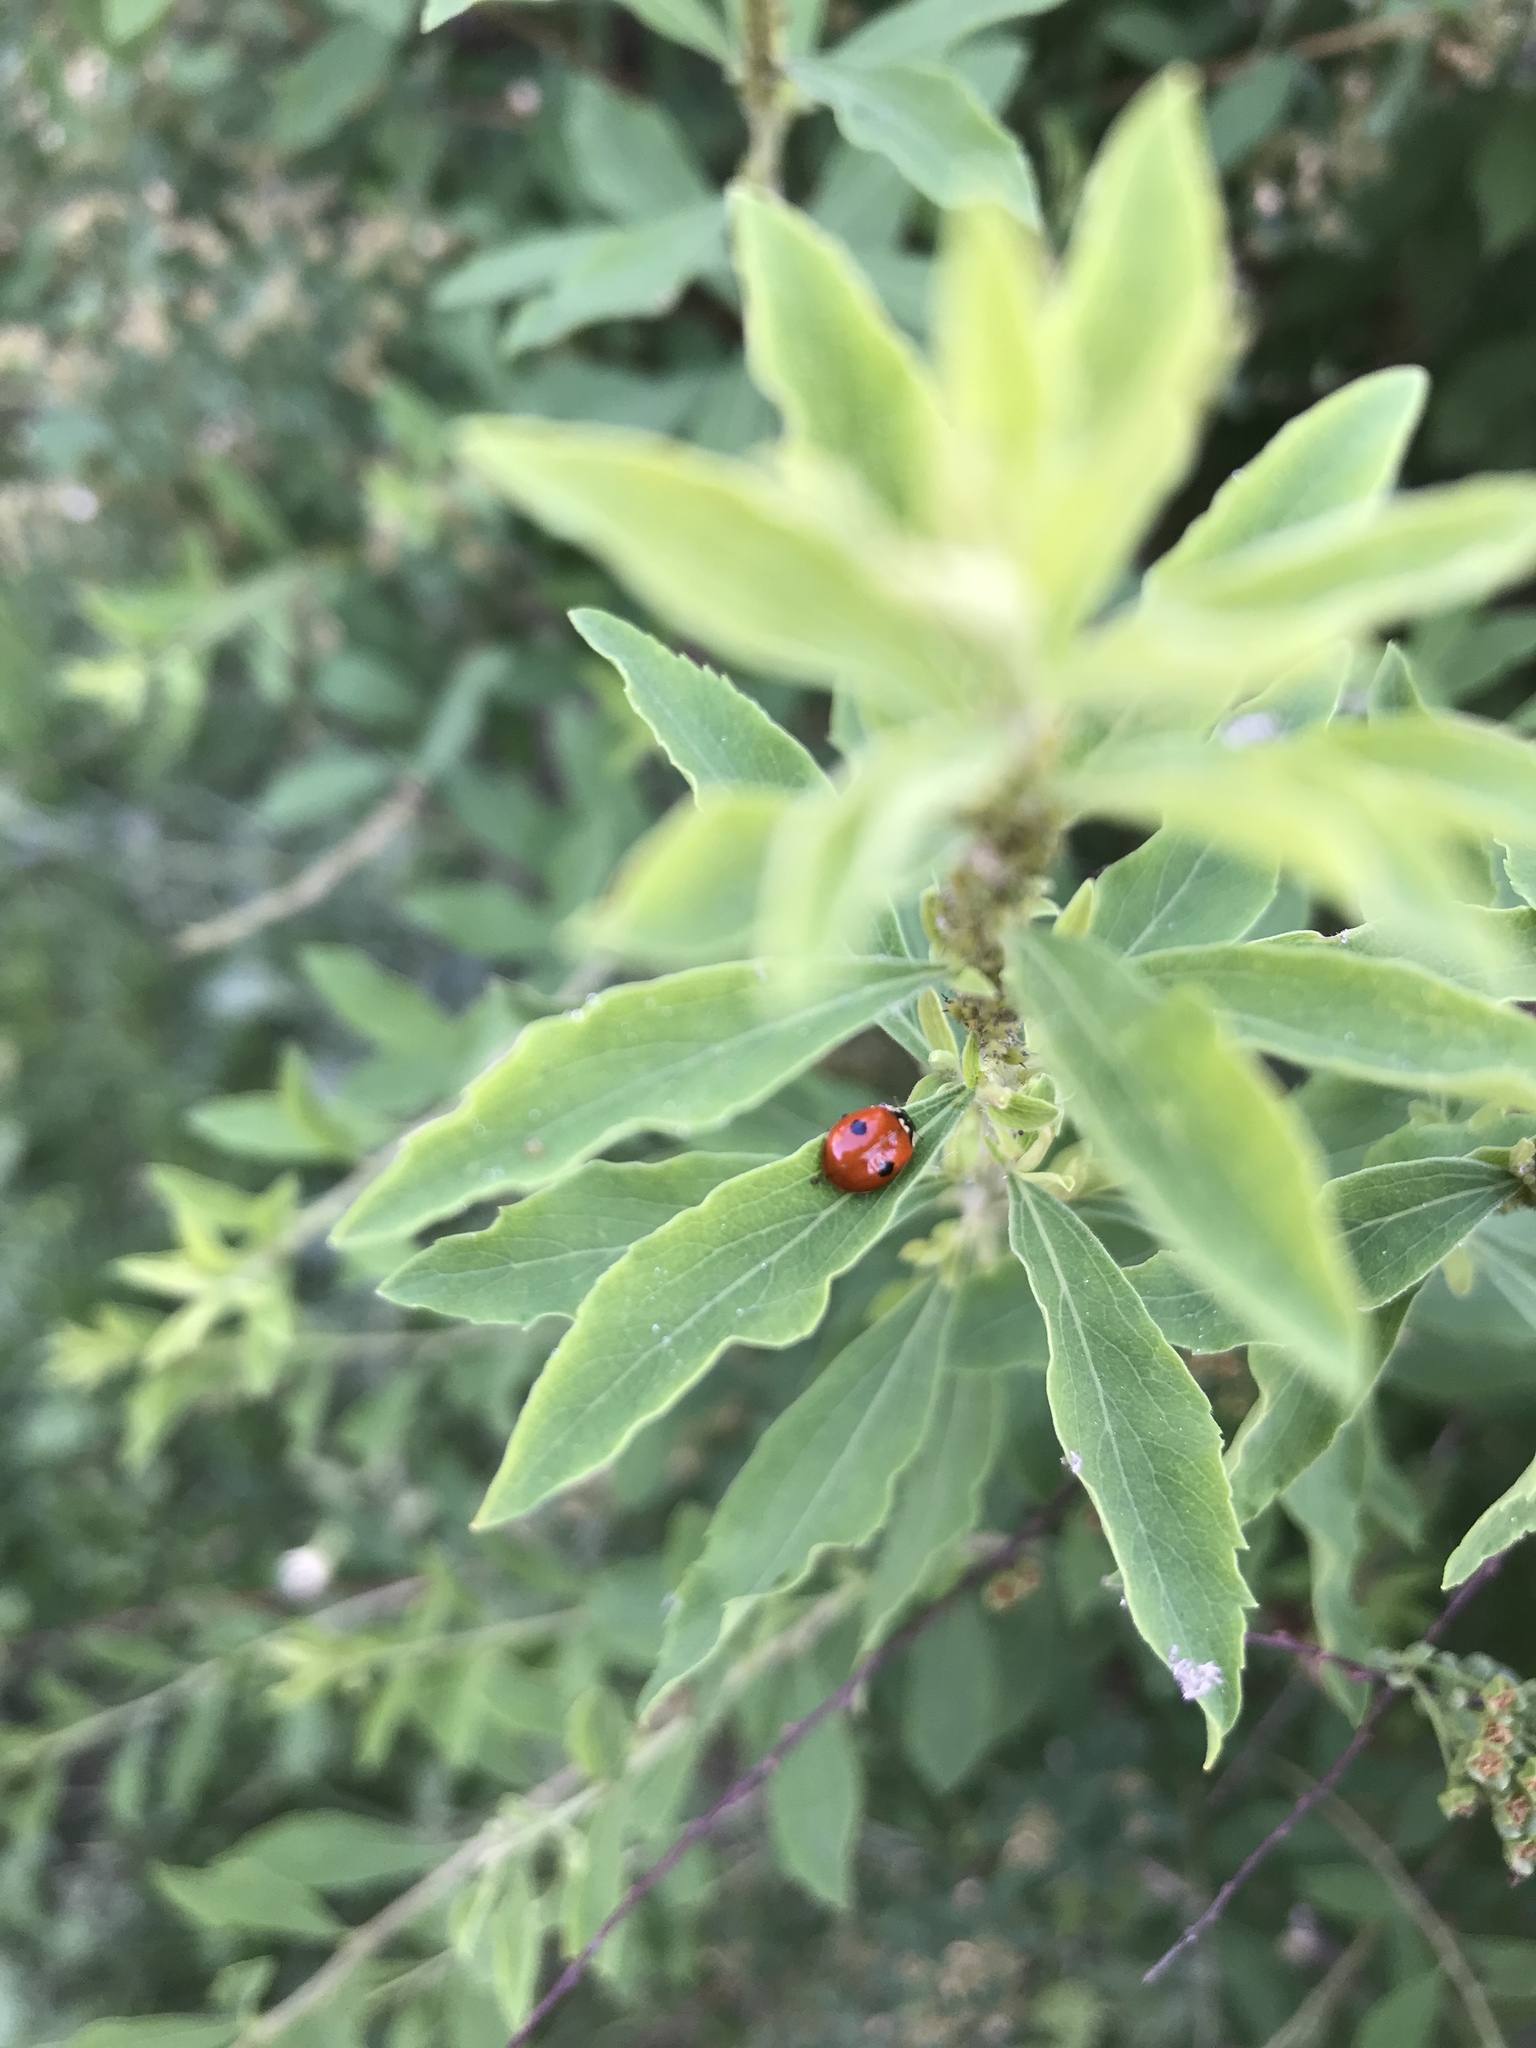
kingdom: Animalia
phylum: Arthropoda
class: Insecta
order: Coleoptera
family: Coccinellidae
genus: Adalia
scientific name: Adalia bipunctata
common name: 2-spot ladybird
